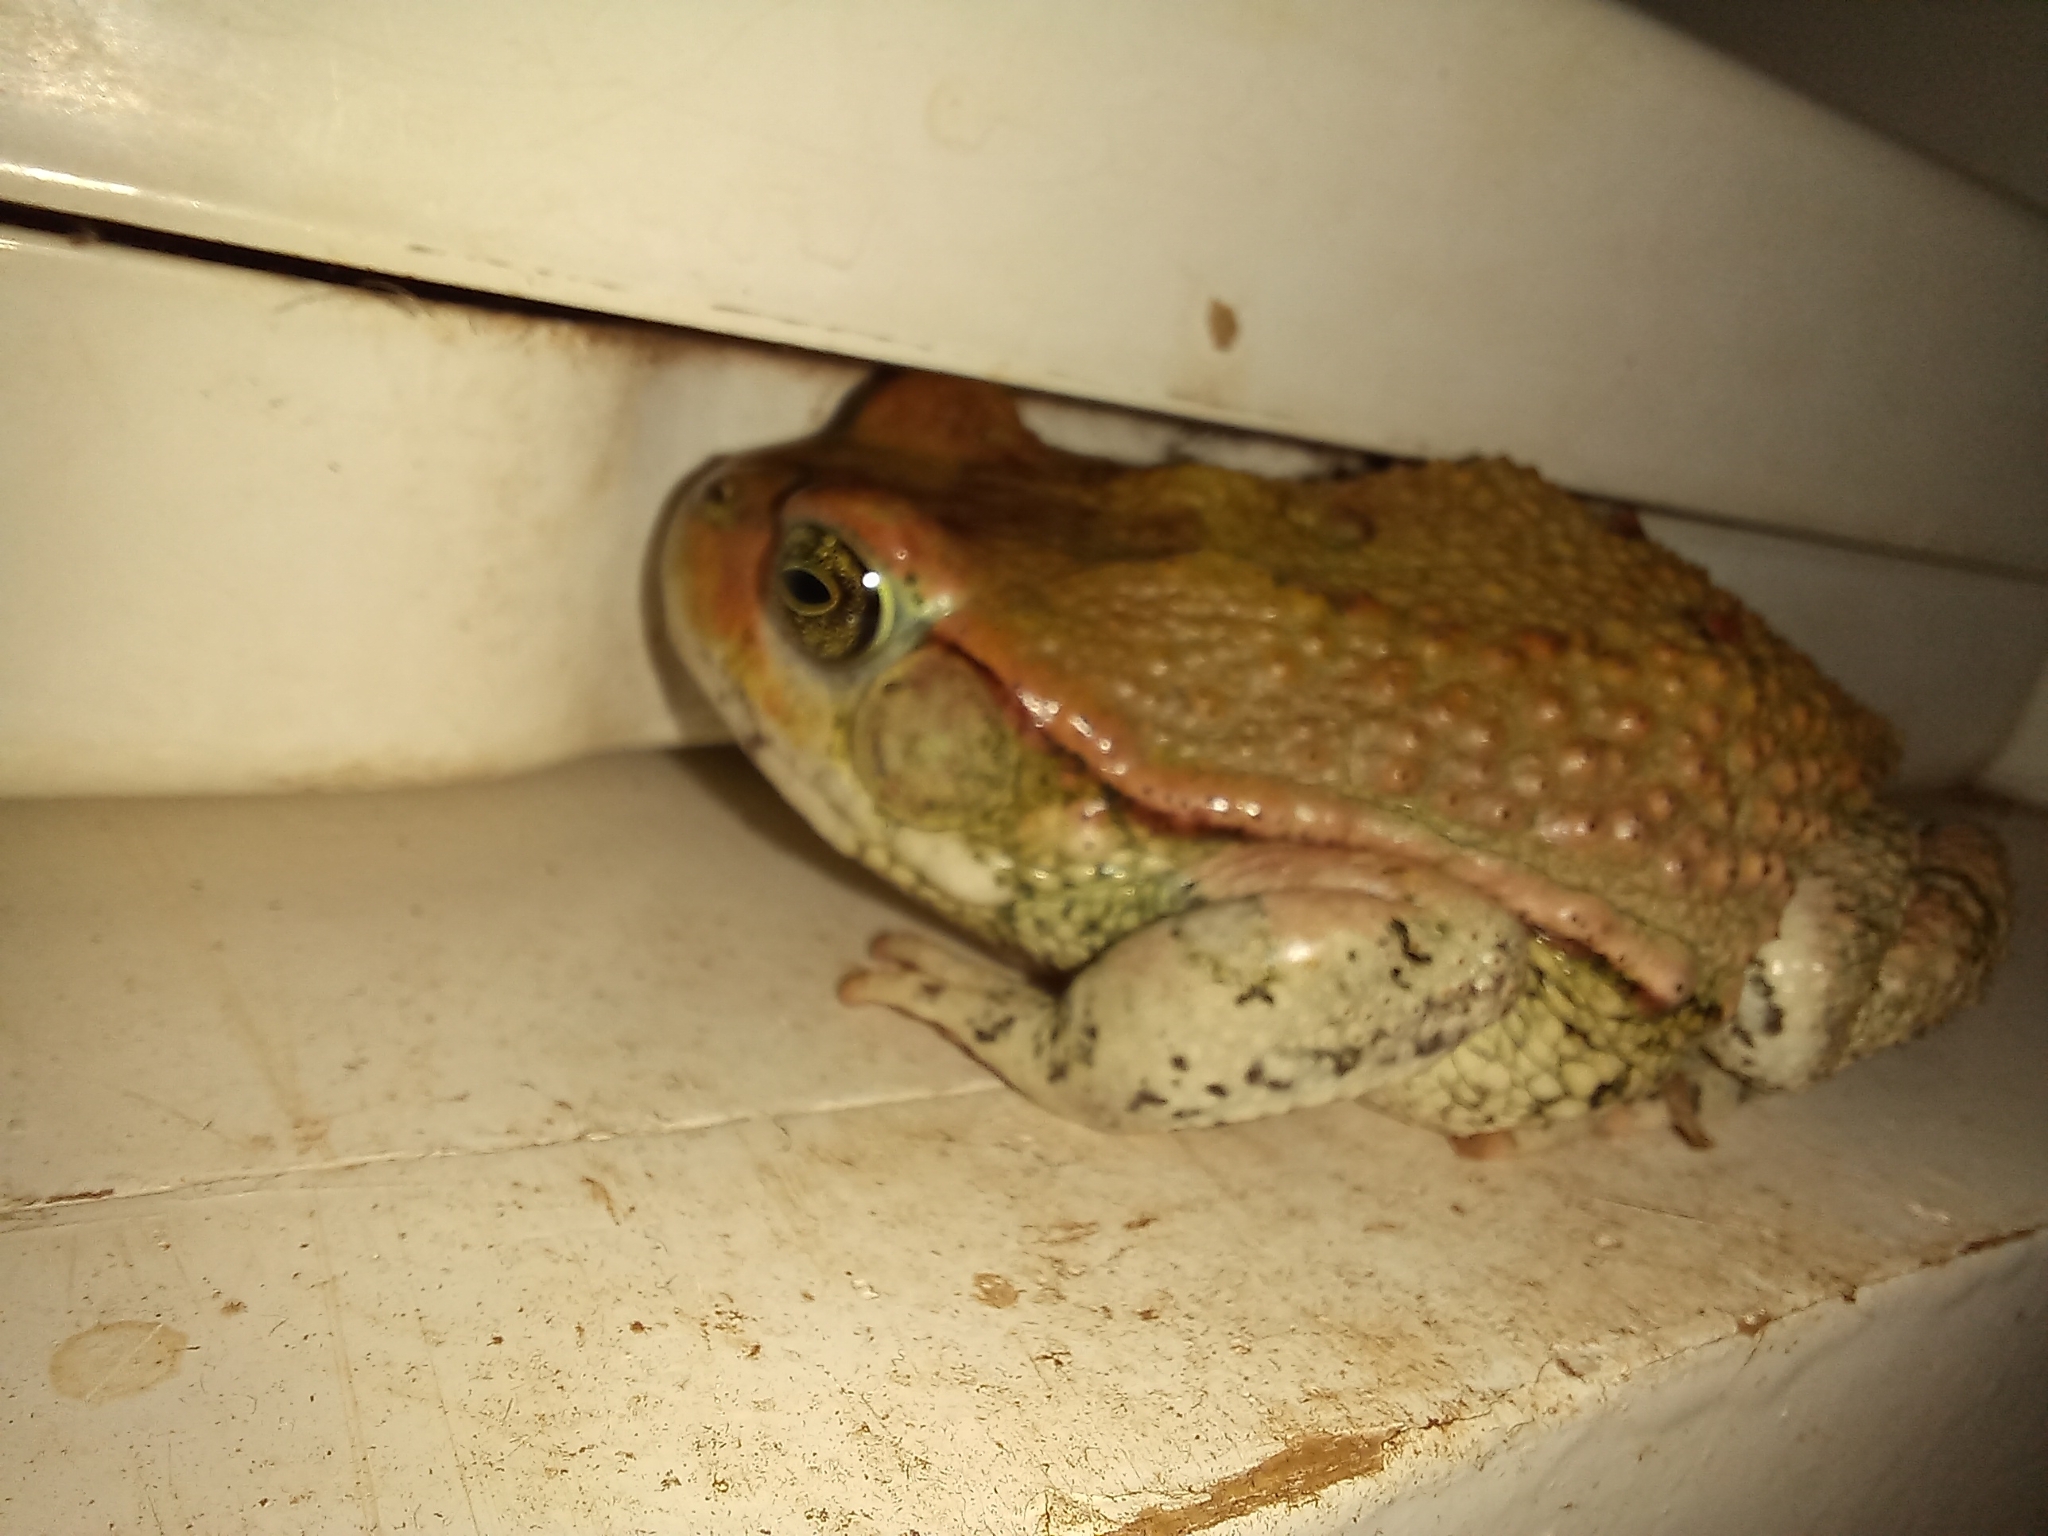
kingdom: Animalia
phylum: Chordata
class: Amphibia
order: Anura
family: Bufonidae
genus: Schismaderma
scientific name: Schismaderma carens
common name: African split-skin toad
